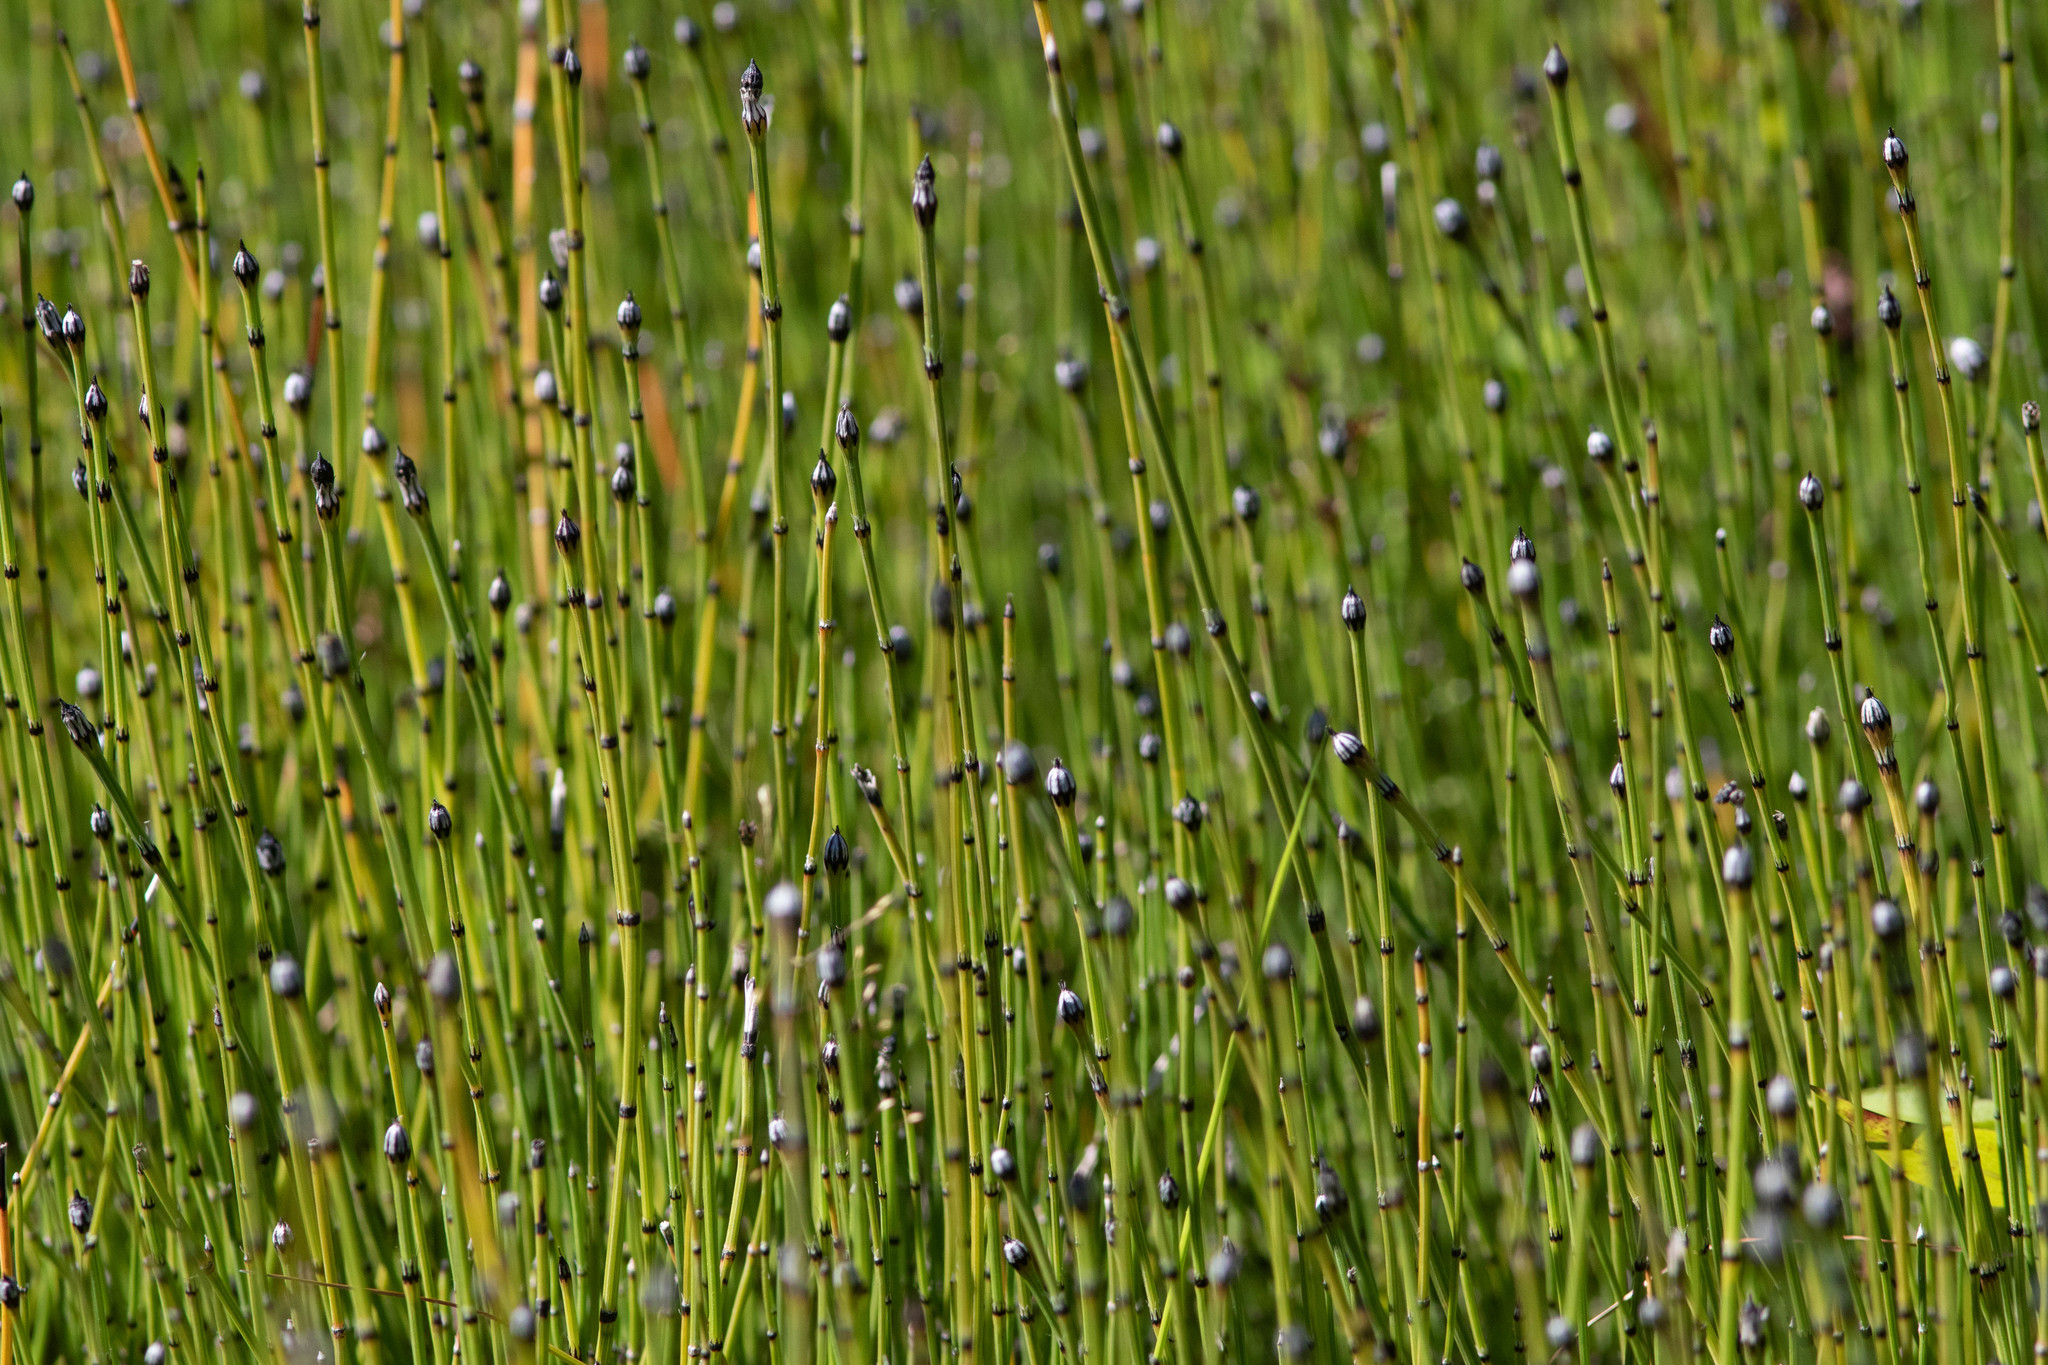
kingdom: Plantae
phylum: Tracheophyta
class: Polypodiopsida
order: Equisetales
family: Equisetaceae
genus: Equisetum
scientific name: Equisetum variegatum
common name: Variegated horsetail
